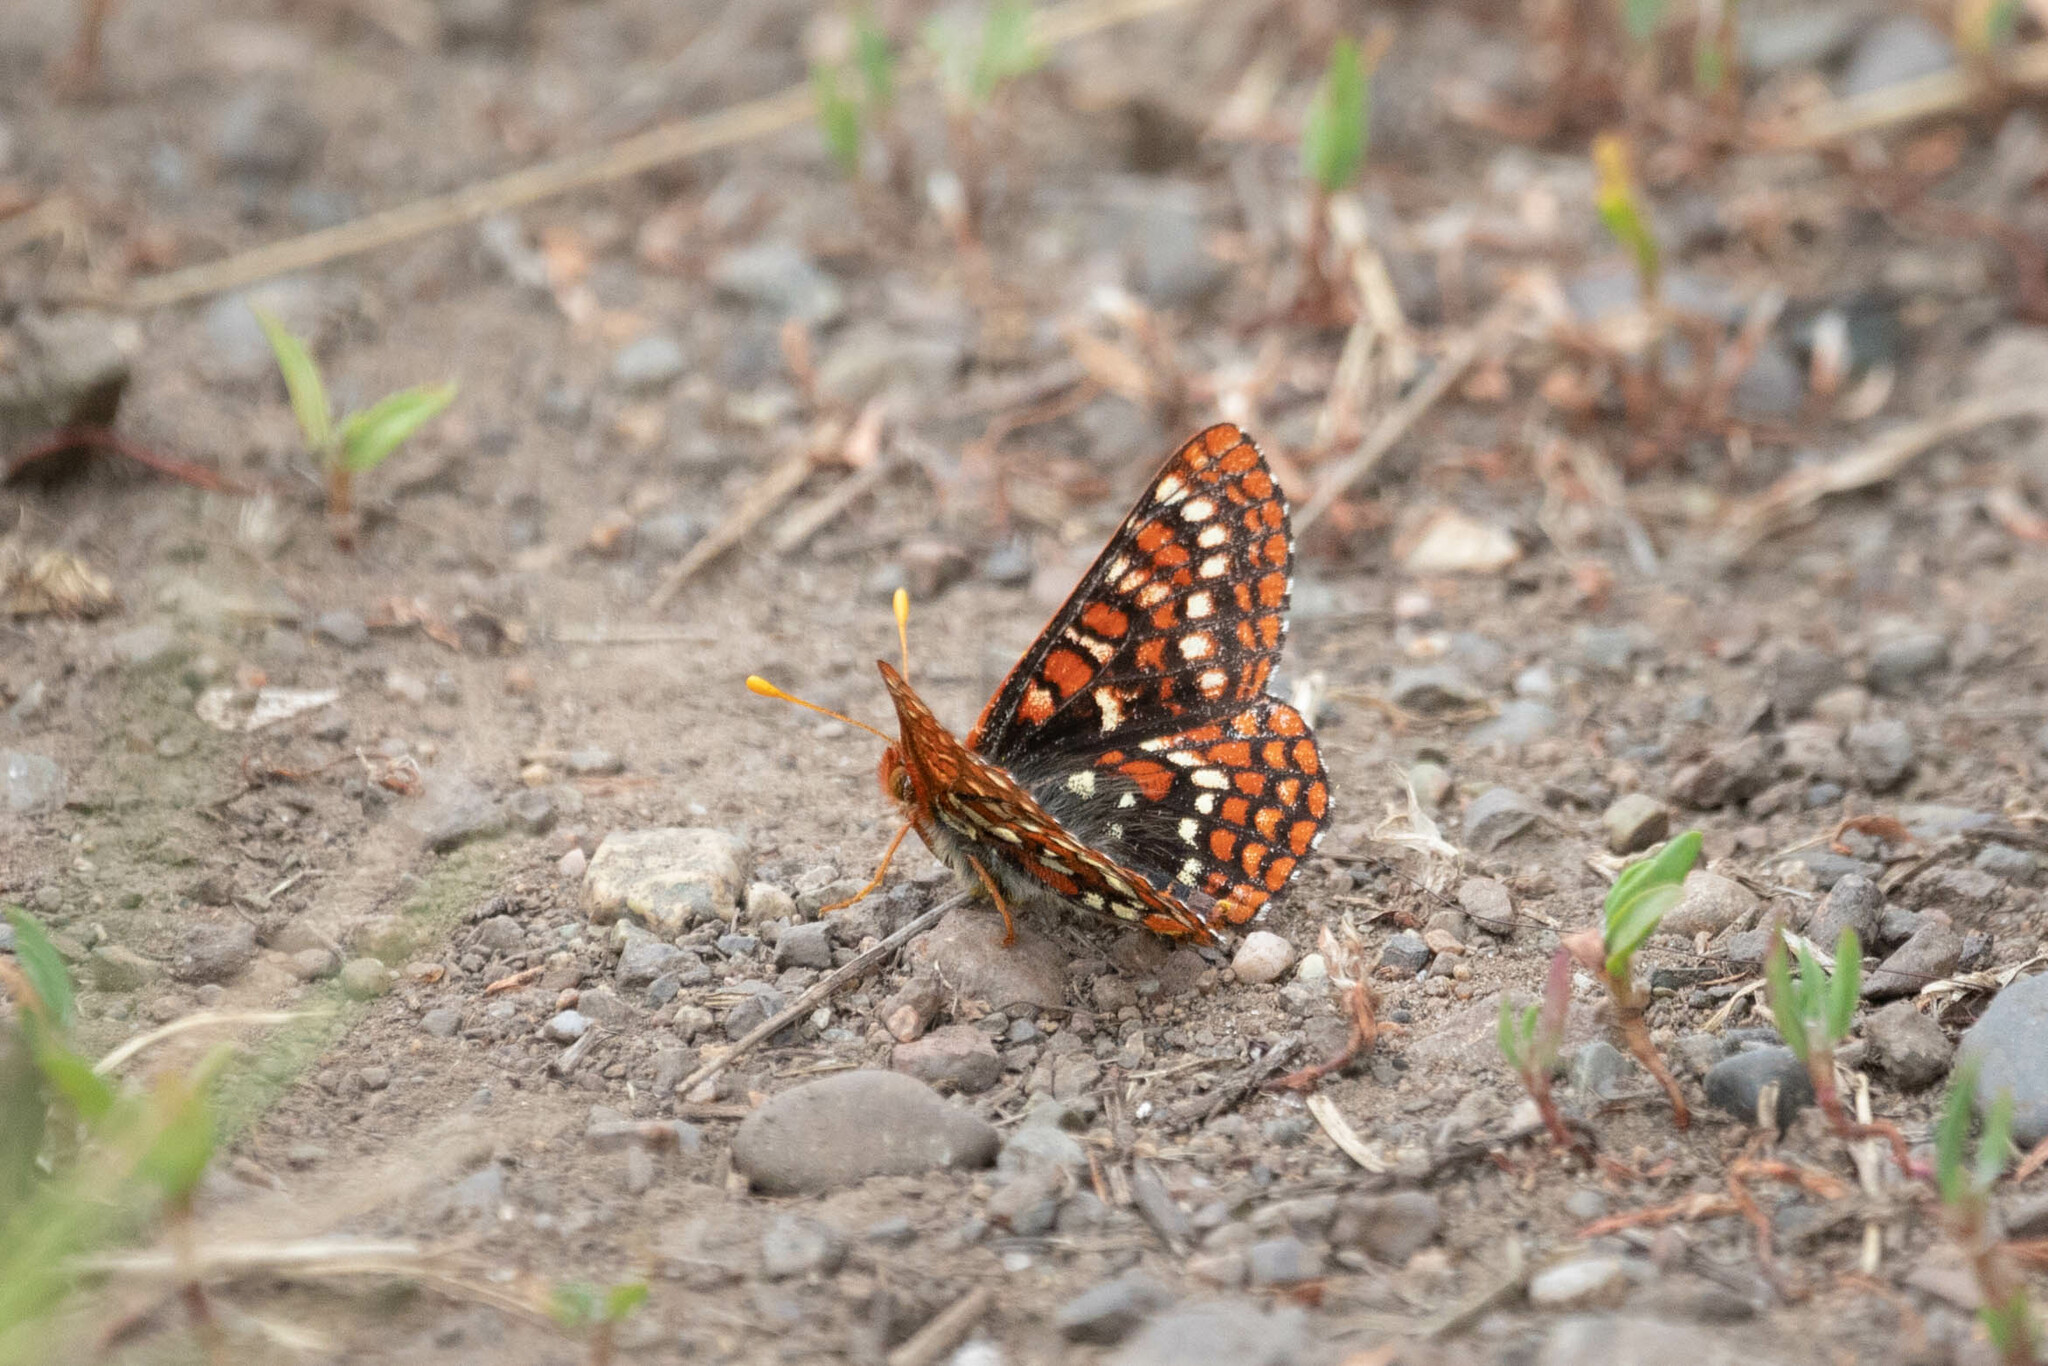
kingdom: Animalia
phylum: Arthropoda
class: Insecta
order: Lepidoptera
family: Nymphalidae
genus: Occidryas
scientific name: Occidryas anicia
